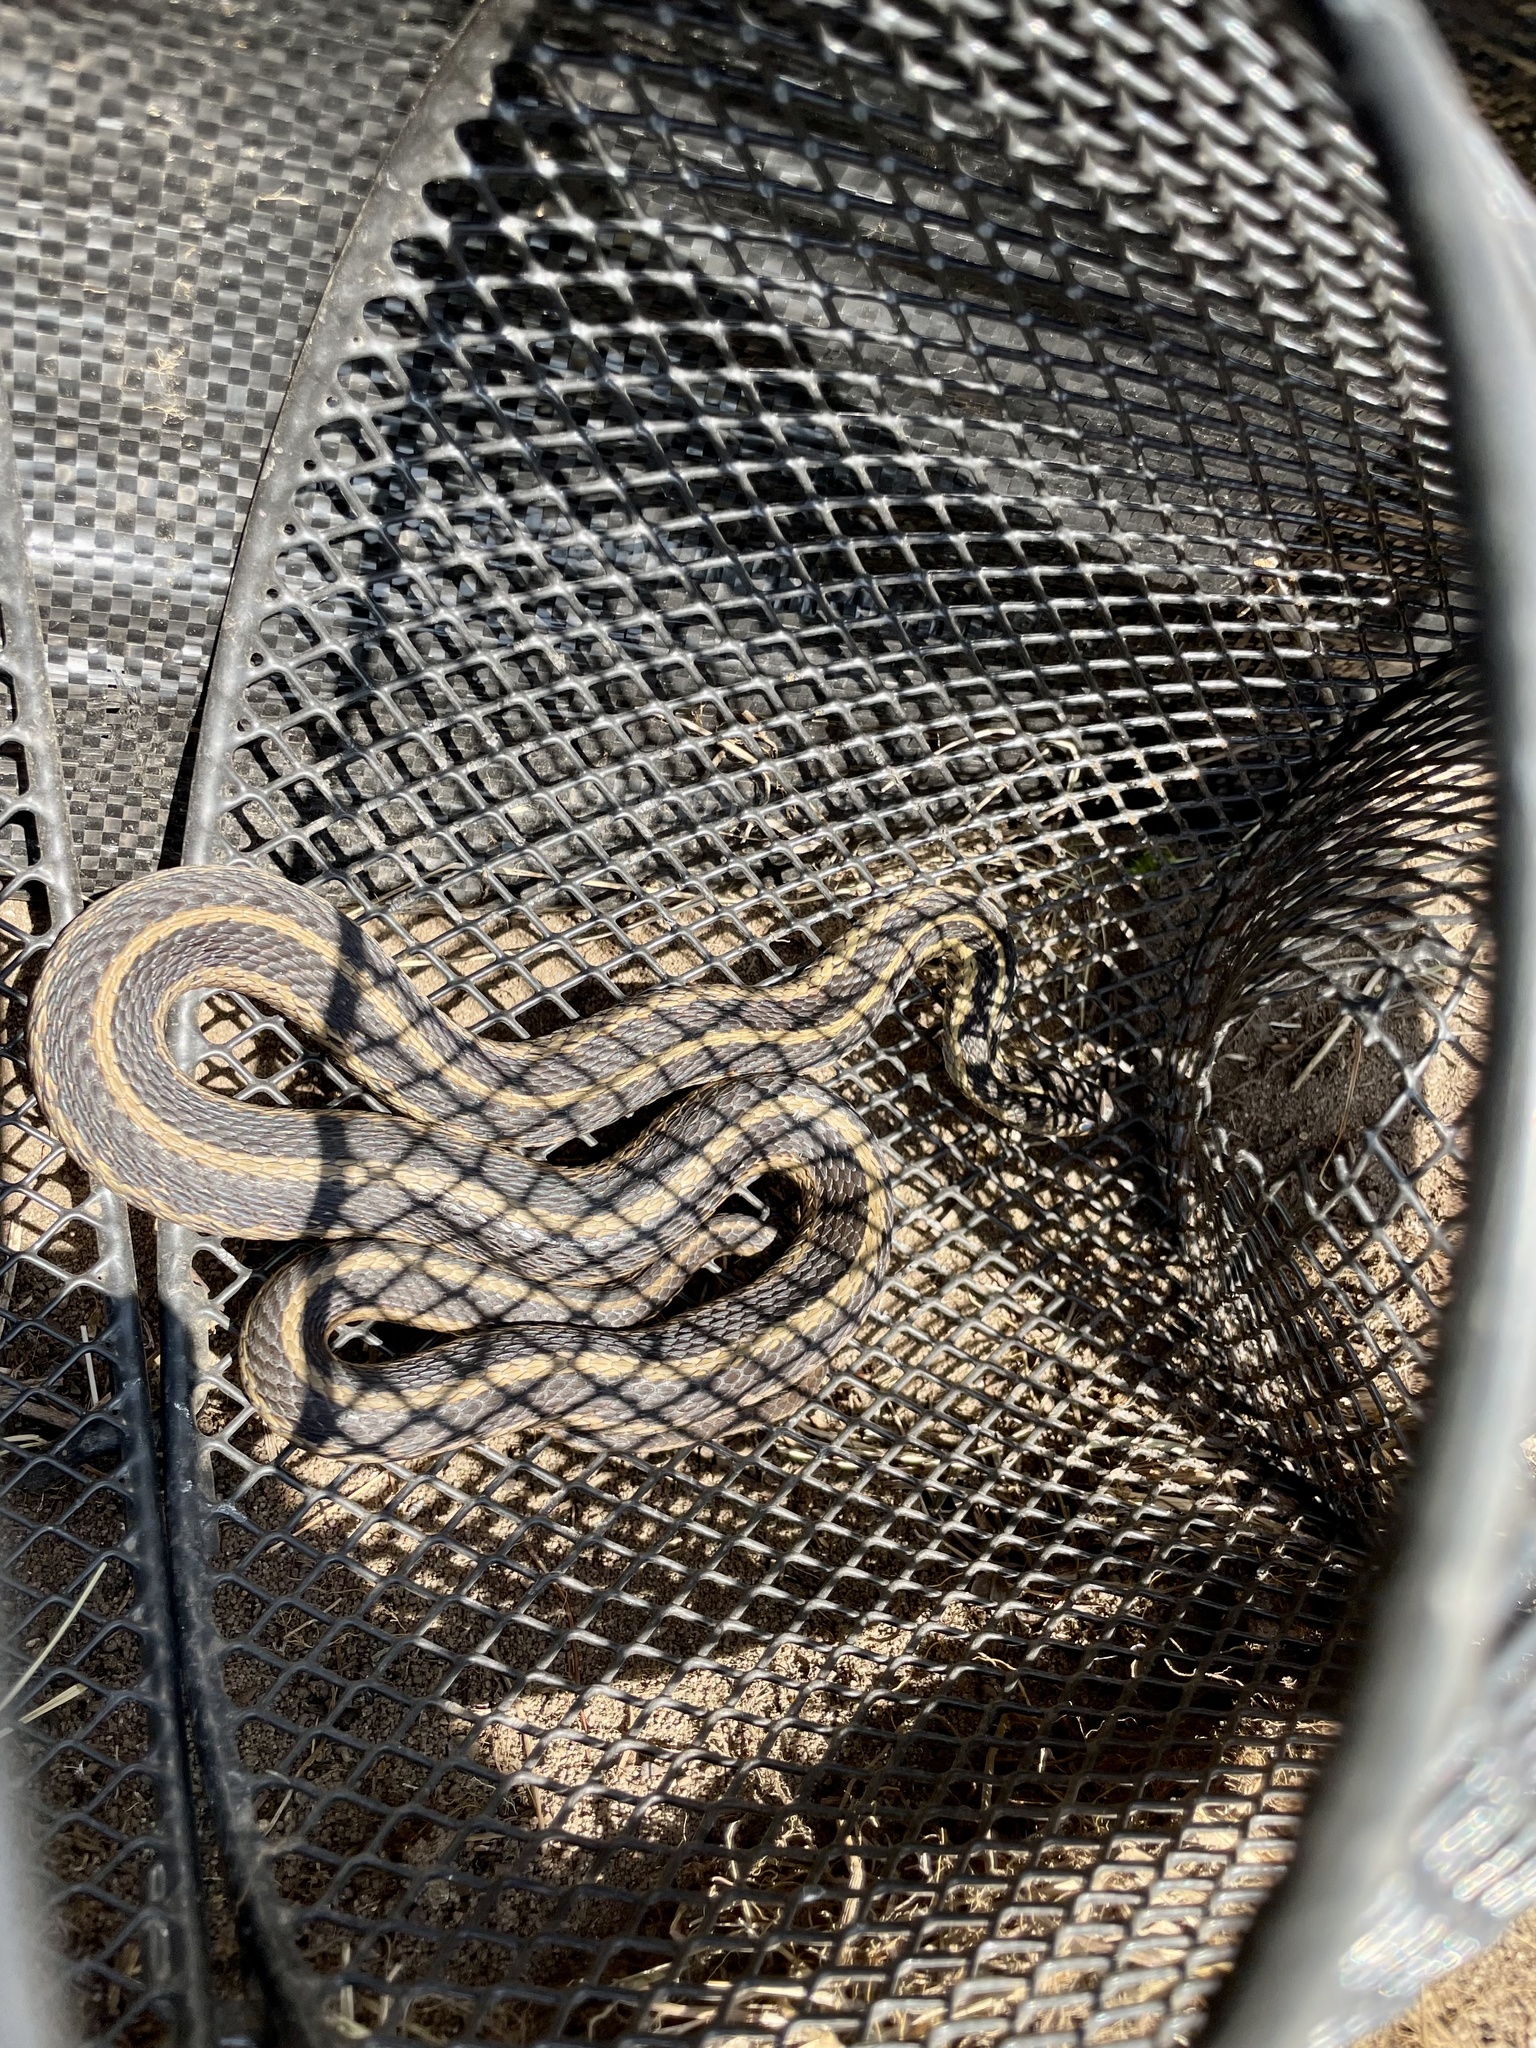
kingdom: Animalia
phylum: Chordata
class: Squamata
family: Colubridae
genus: Thamnophis
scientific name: Thamnophis sirtalis
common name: Common garter snake
